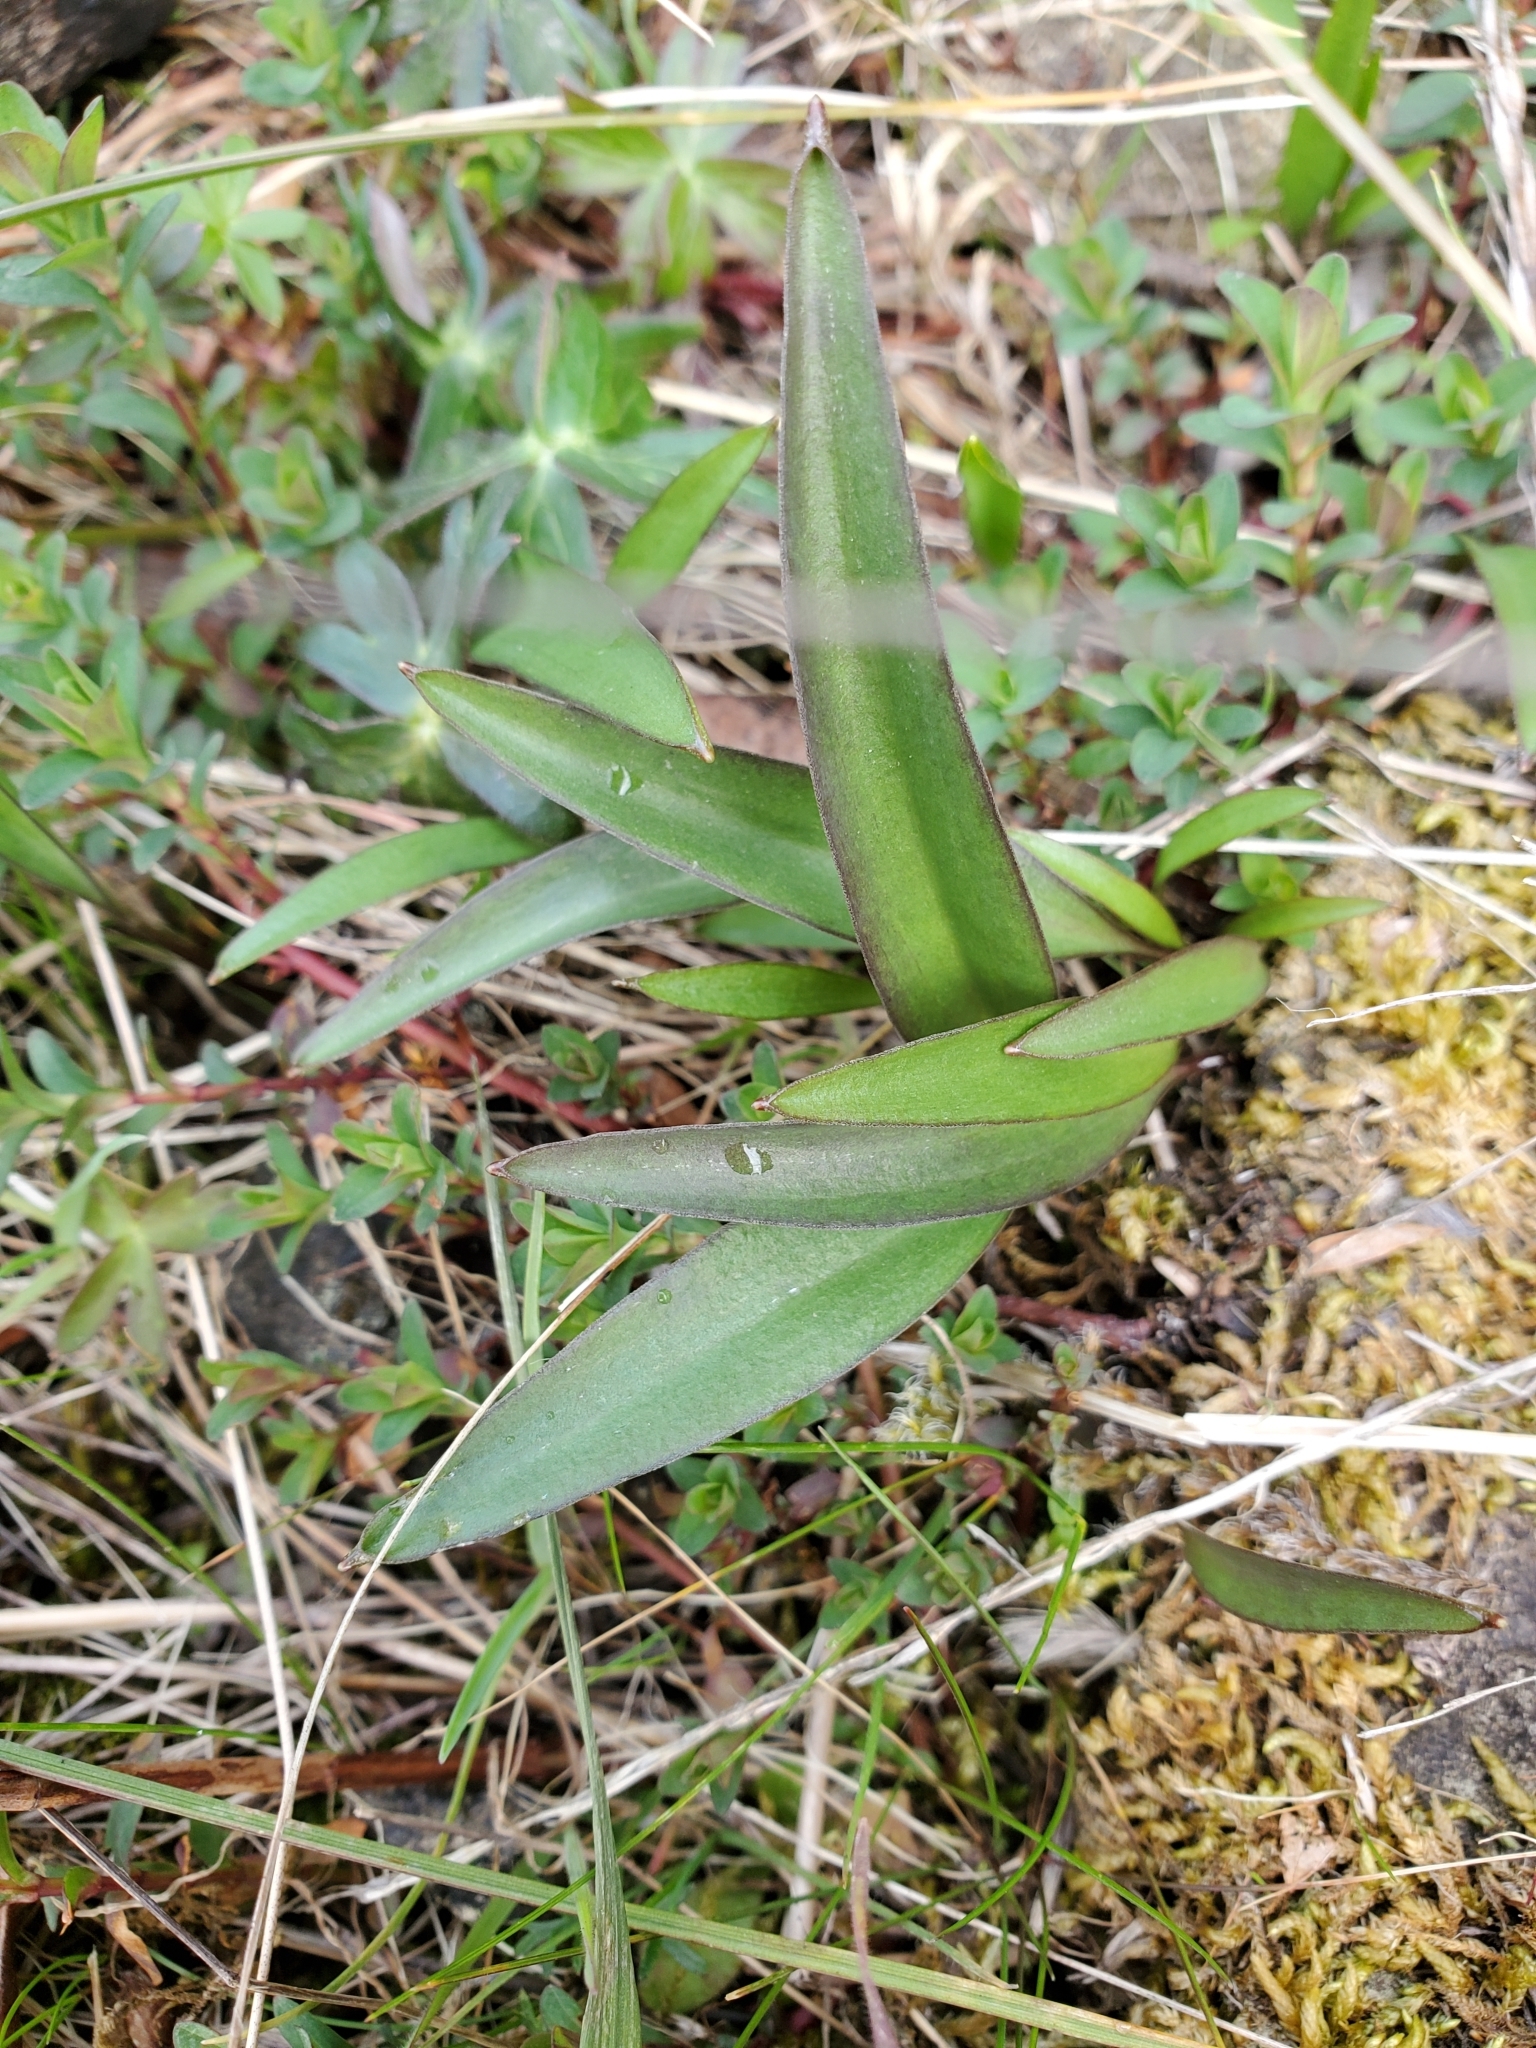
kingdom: Plantae
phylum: Tracheophyta
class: Liliopsida
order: Liliales
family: Liliaceae
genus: Fritillaria
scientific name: Fritillaria affinis
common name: Ojai fritillary
